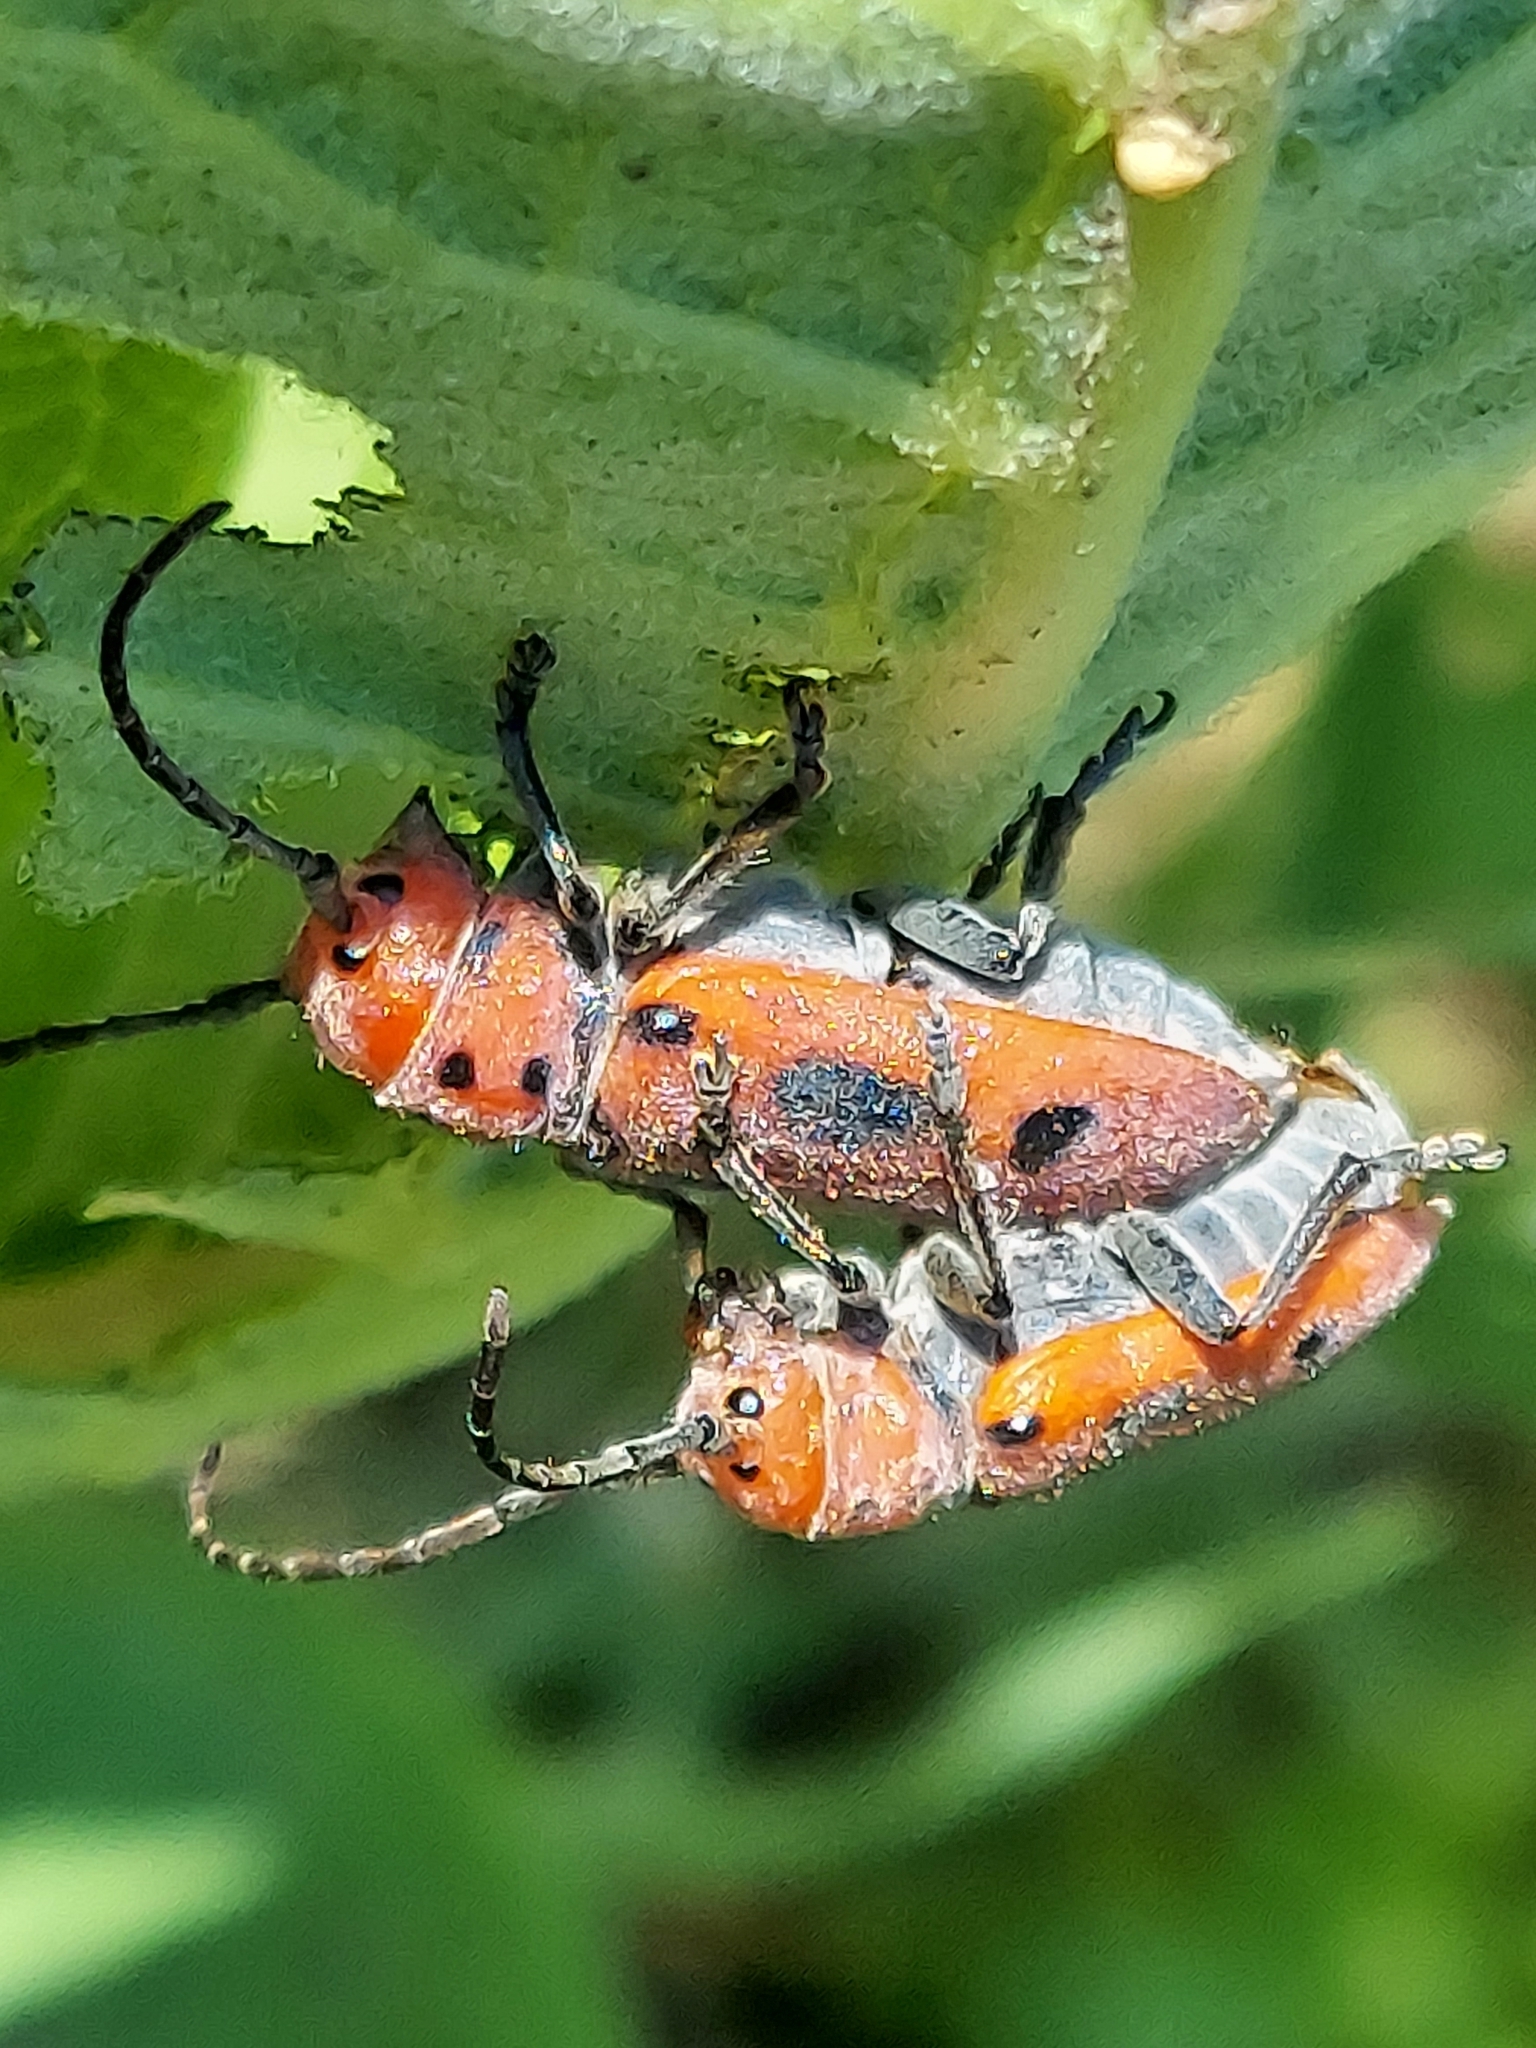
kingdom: Animalia
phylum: Arthropoda
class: Insecta
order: Coleoptera
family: Cerambycidae
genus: Tetraopes
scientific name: Tetraopes tetrophthalmus
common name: Red milkweed beetle
